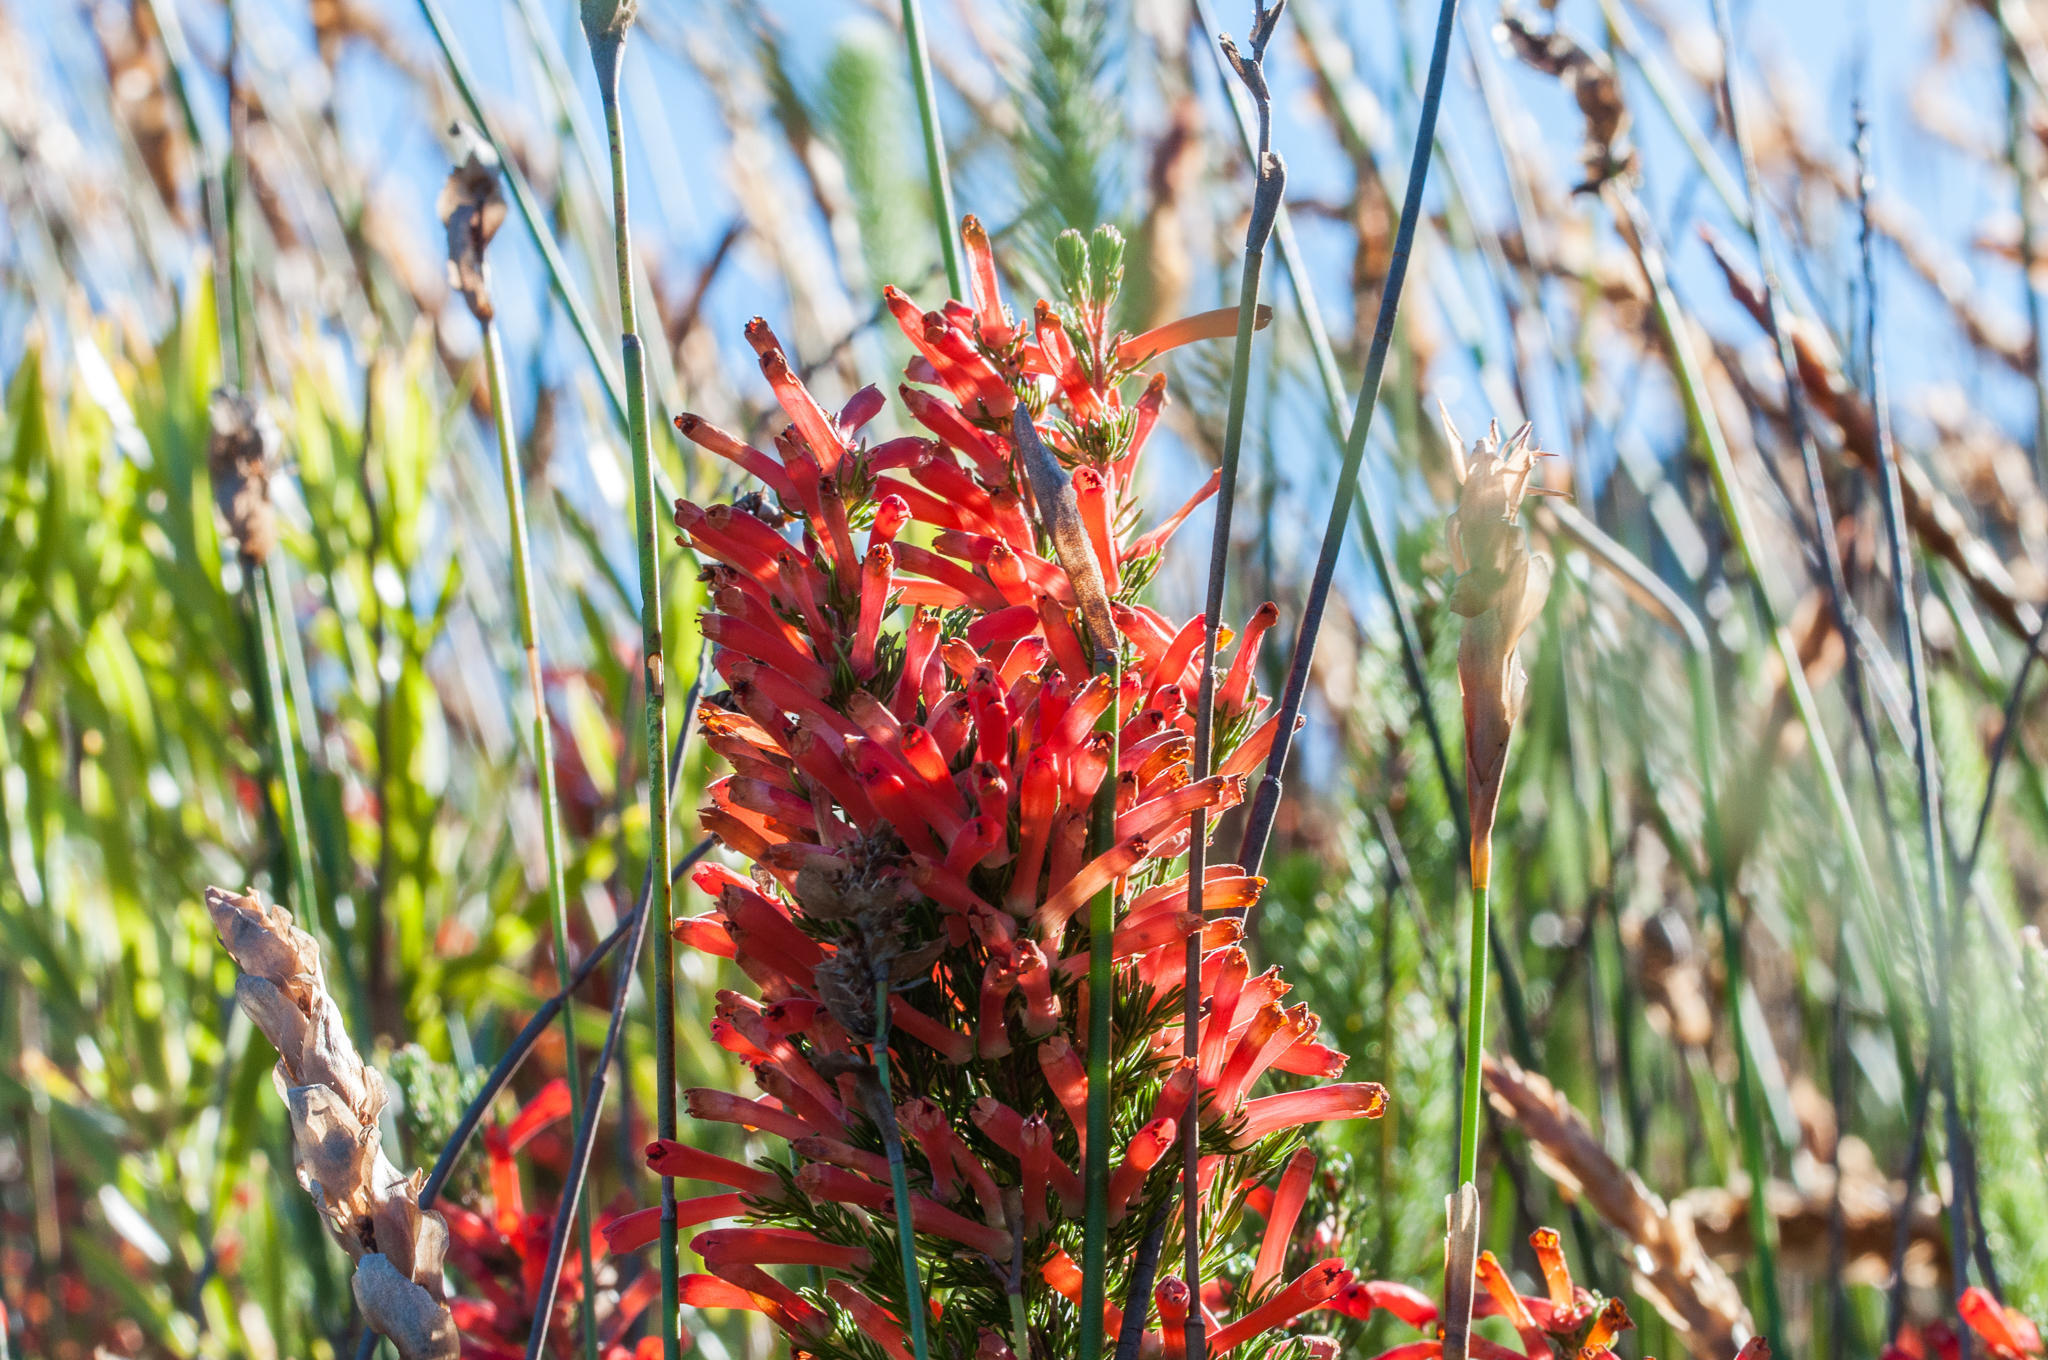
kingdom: Plantae
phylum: Tracheophyta
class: Magnoliopsida
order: Ericales
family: Ericaceae
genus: Erica
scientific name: Erica pillansii
